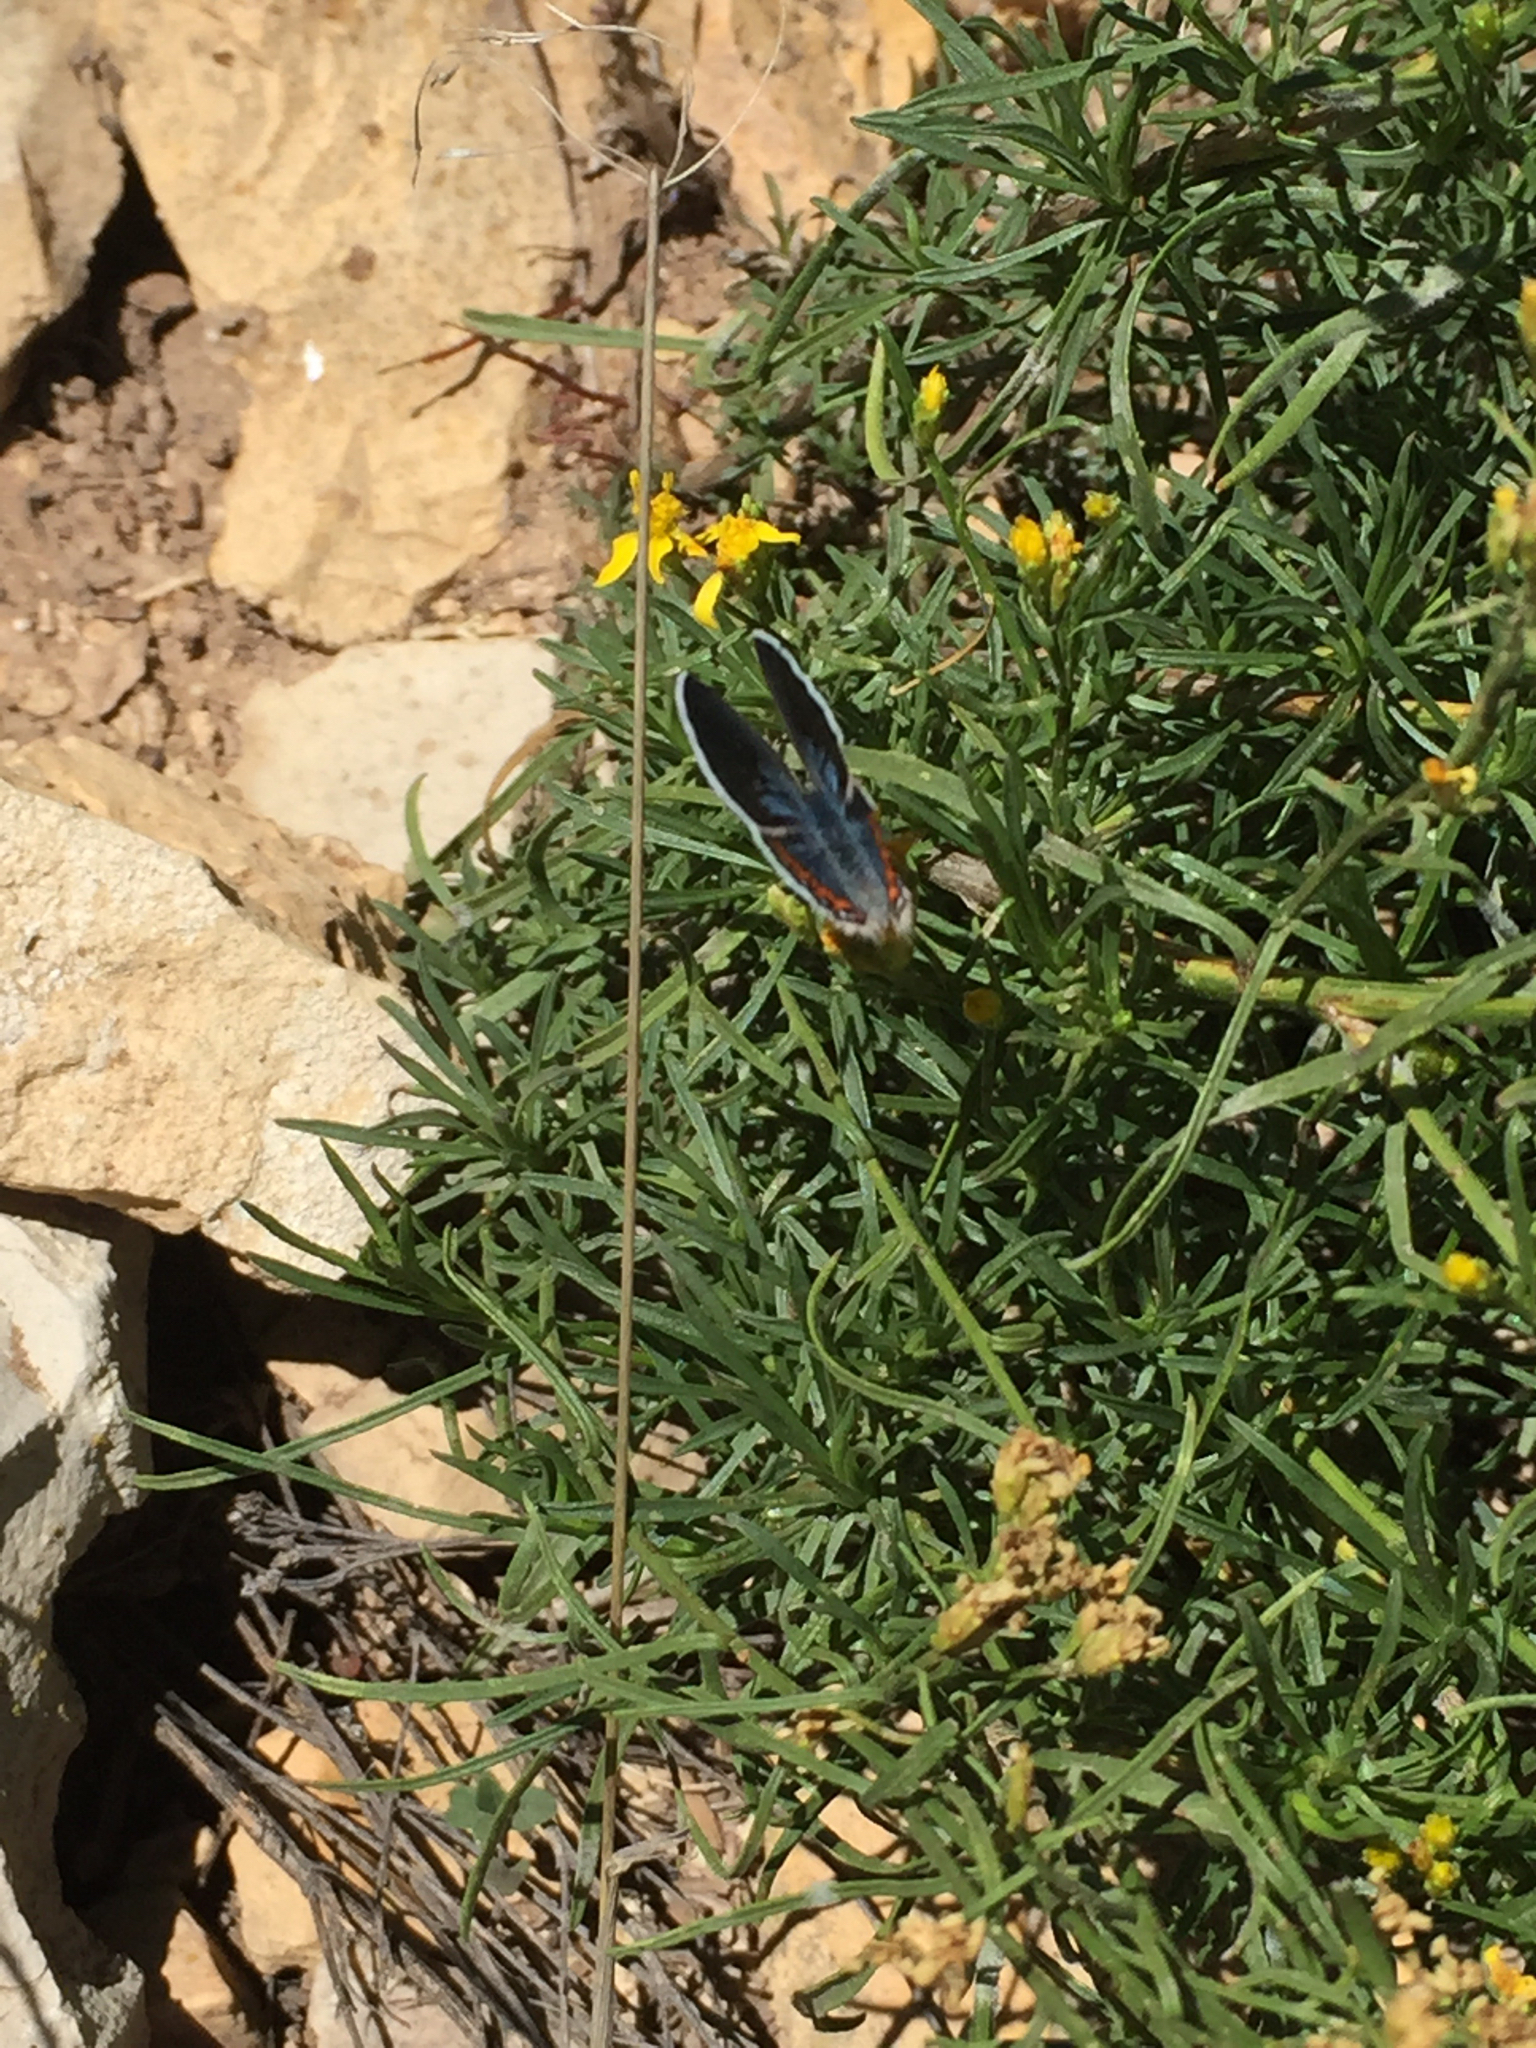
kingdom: Animalia
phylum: Arthropoda
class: Insecta
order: Lepidoptera
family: Lycaenidae
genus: Icaricia
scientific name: Icaricia lupini
